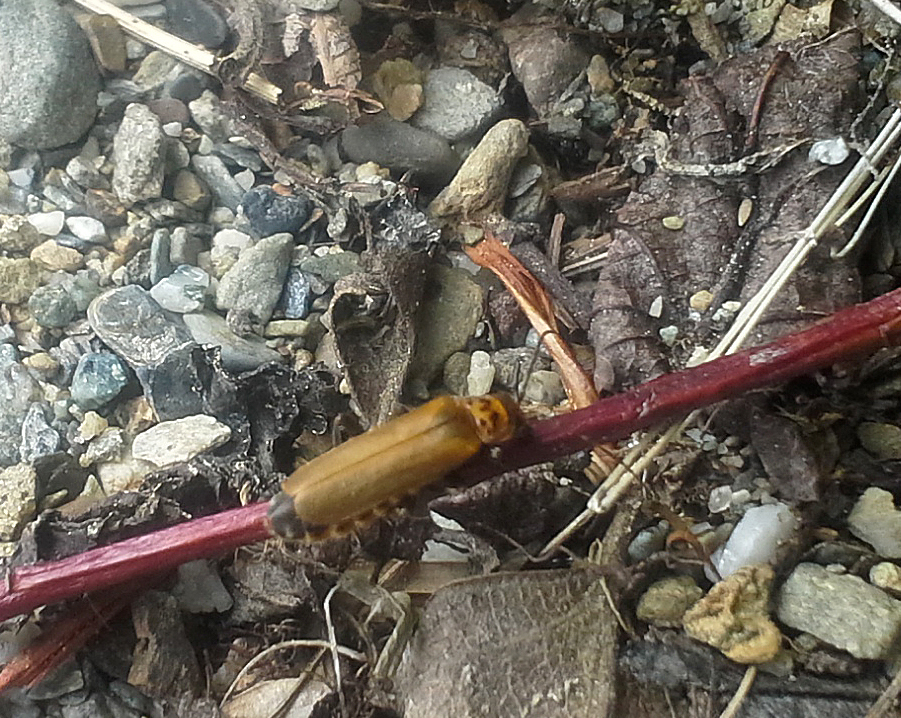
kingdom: Animalia
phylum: Arthropoda
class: Insecta
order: Coleoptera
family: Cantharidae
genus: Cantharis
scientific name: Cantharis rufa
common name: Red-spotted soldier beetle
